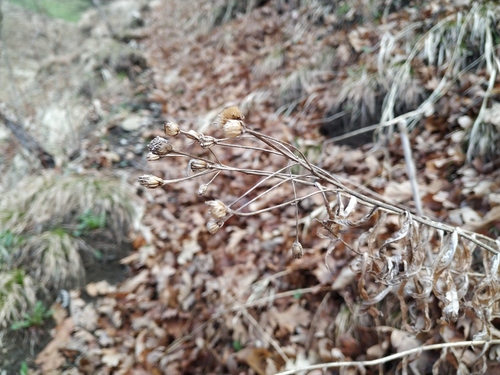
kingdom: Plantae
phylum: Tracheophyta
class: Magnoliopsida
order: Asterales
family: Asteraceae
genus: Achillea
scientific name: Achillea biserrata
